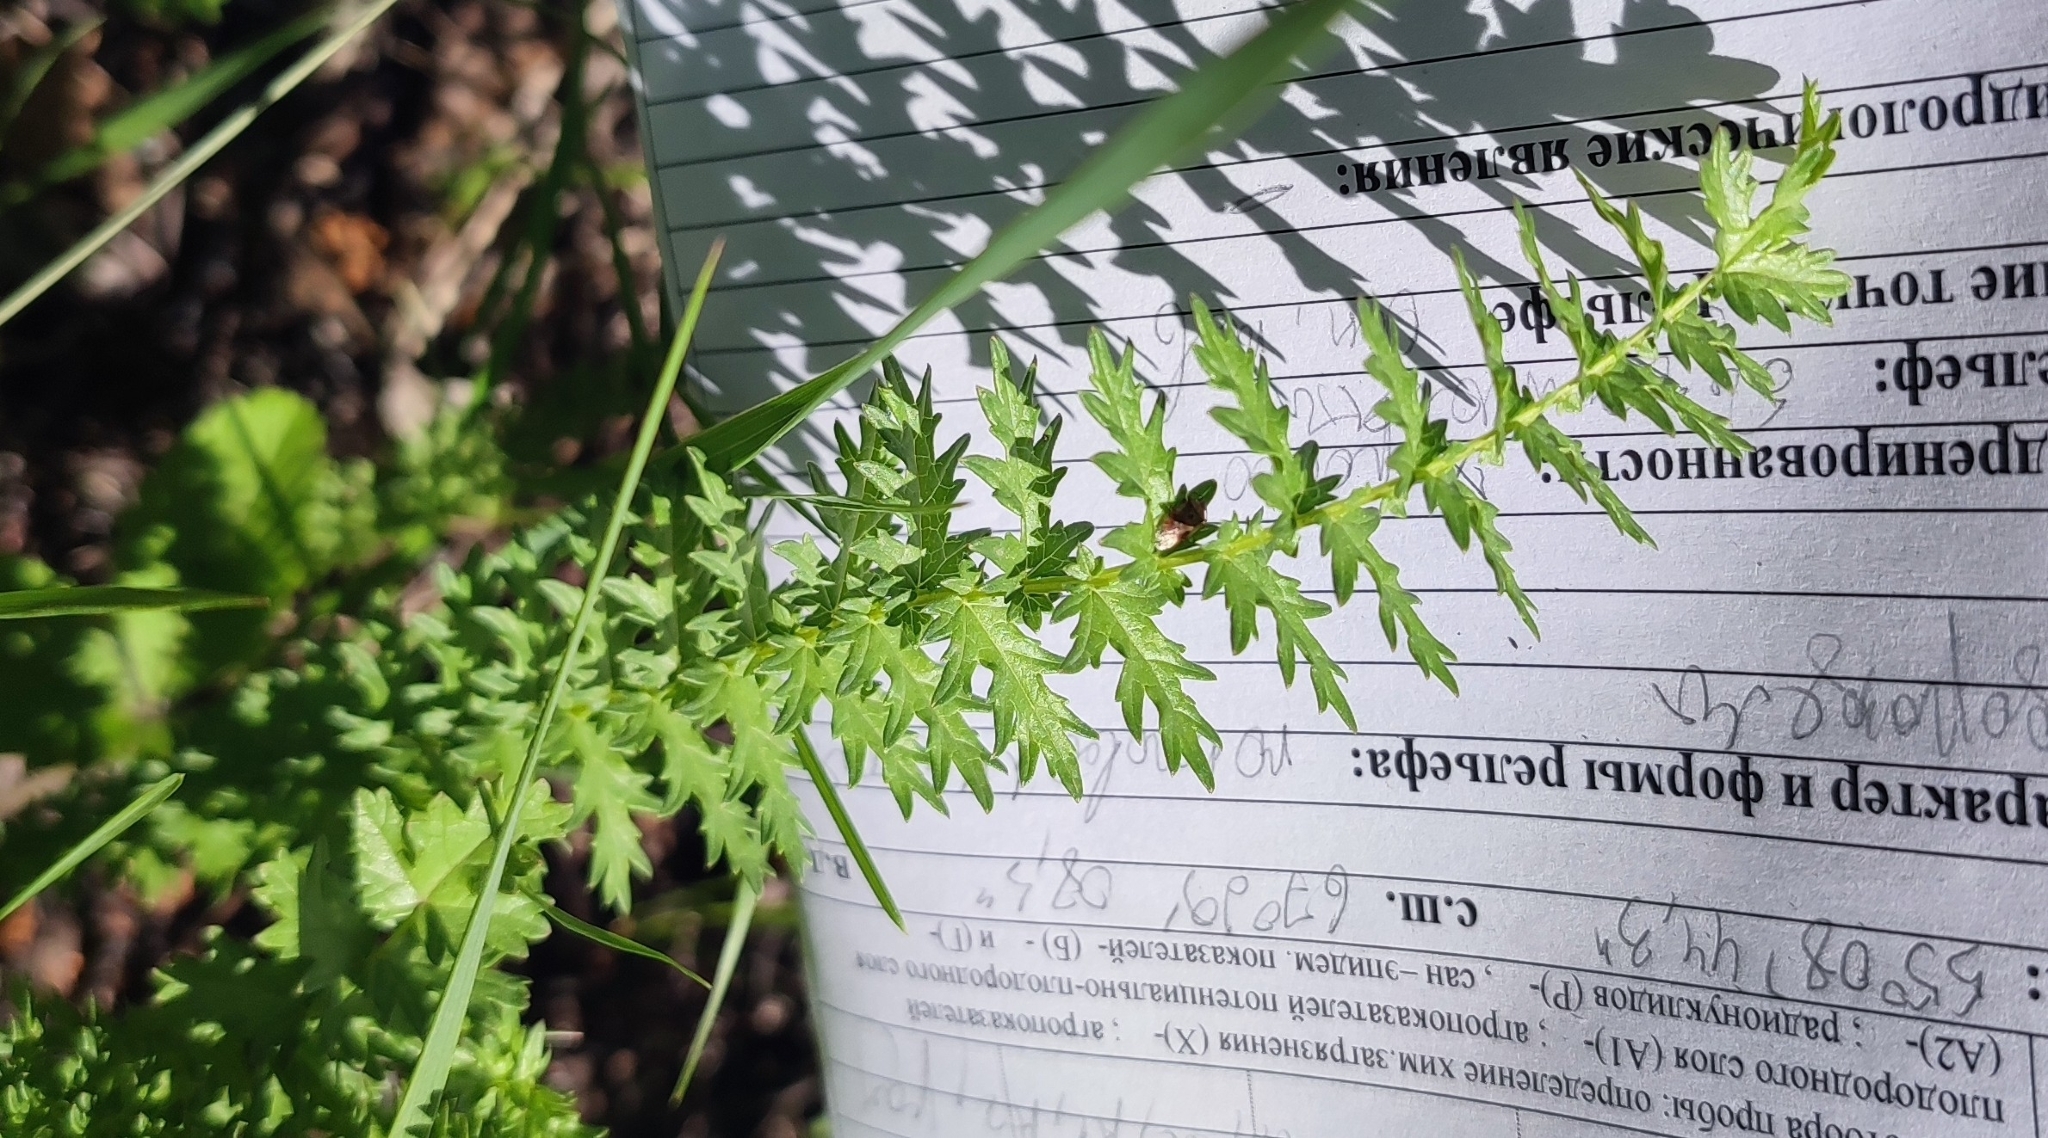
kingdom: Plantae
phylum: Tracheophyta
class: Magnoliopsida
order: Rosales
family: Rosaceae
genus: Filipendula
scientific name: Filipendula vulgaris
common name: Dropwort
